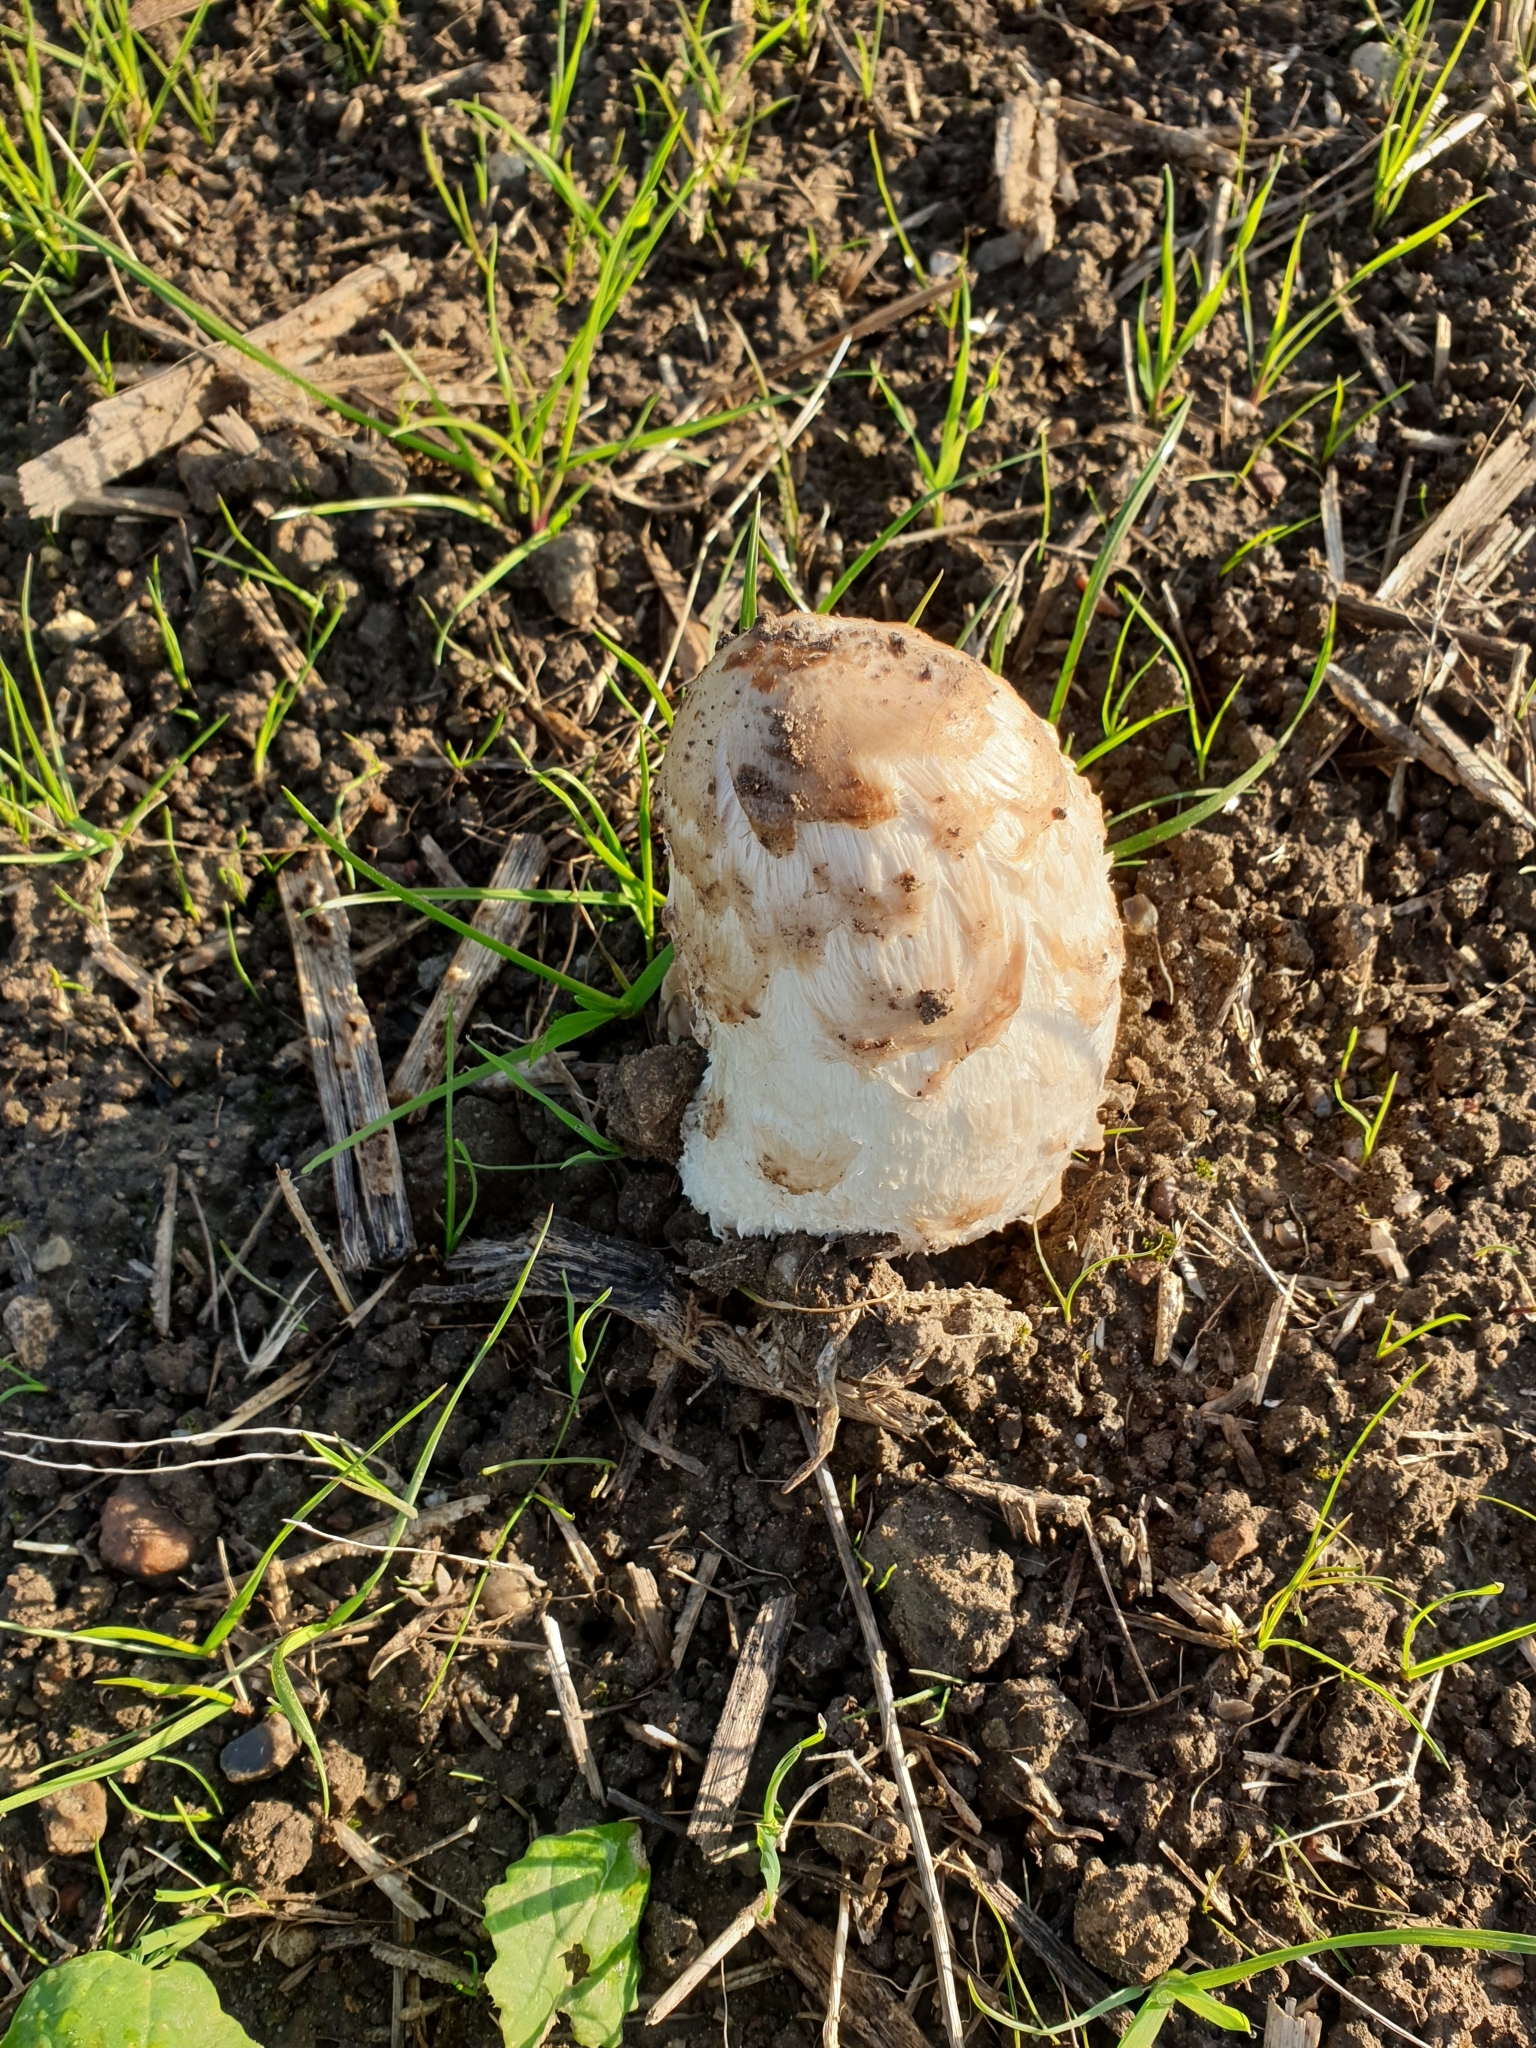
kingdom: Fungi
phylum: Basidiomycota
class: Agaricomycetes
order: Agaricales
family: Agaricaceae
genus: Coprinus
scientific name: Coprinus comatus
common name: Lawyer's wig
